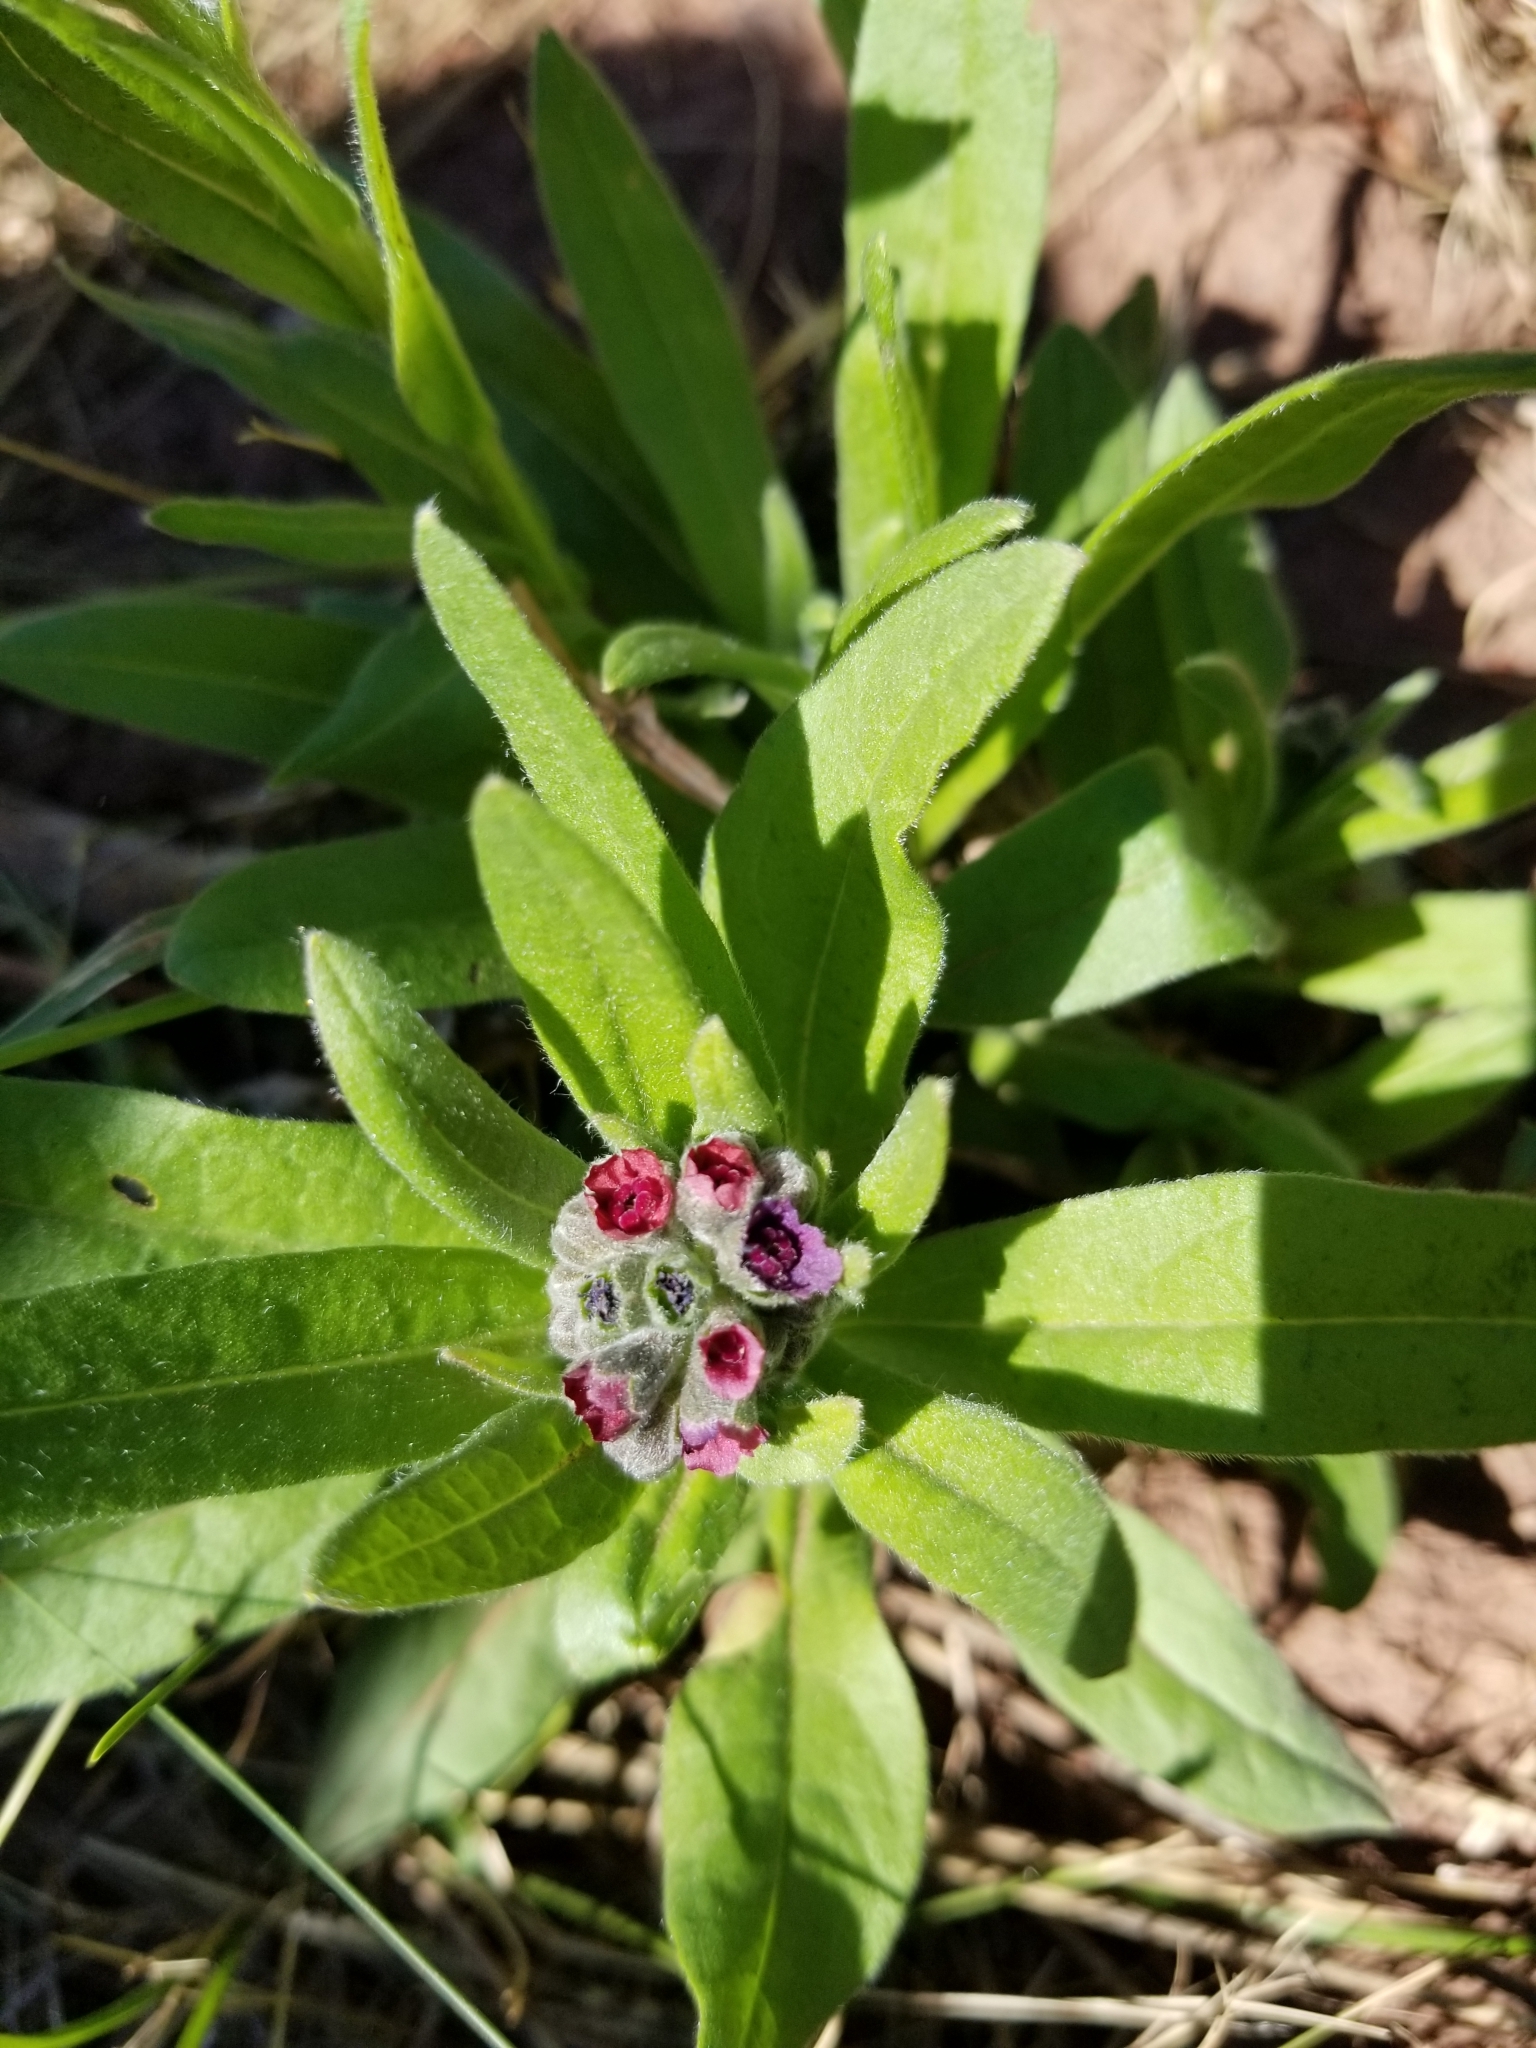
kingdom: Plantae
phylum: Tracheophyta
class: Magnoliopsida
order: Boraginales
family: Boraginaceae
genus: Cynoglossum
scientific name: Cynoglossum officinale
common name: Hound's-tongue
